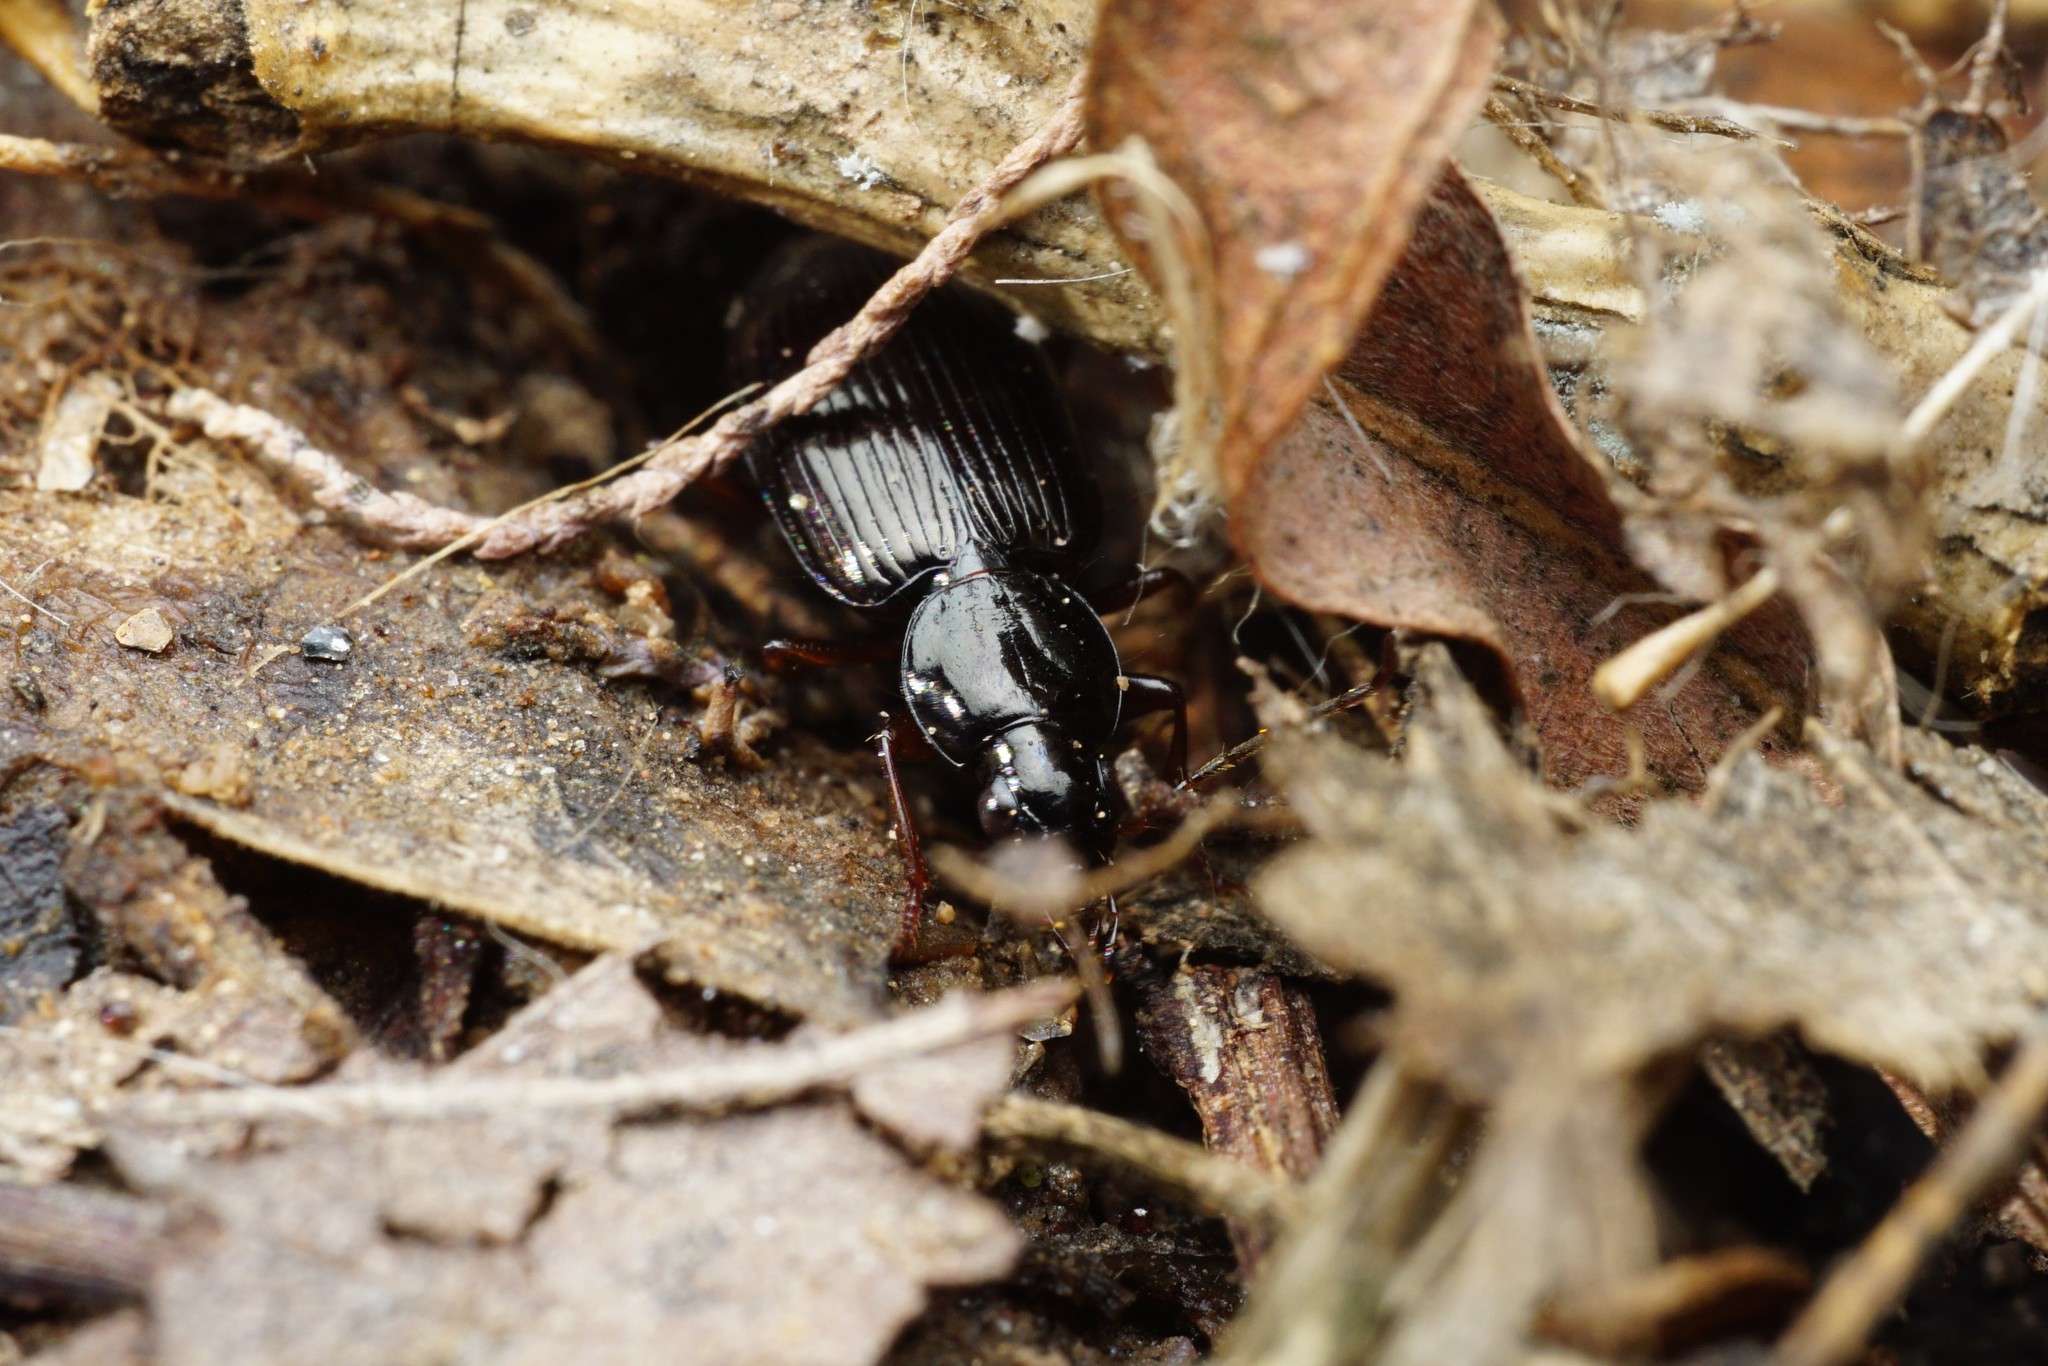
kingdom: Animalia
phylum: Arthropoda
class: Insecta
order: Coleoptera
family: Carabidae
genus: Agonum
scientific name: Agonum punctiforme
